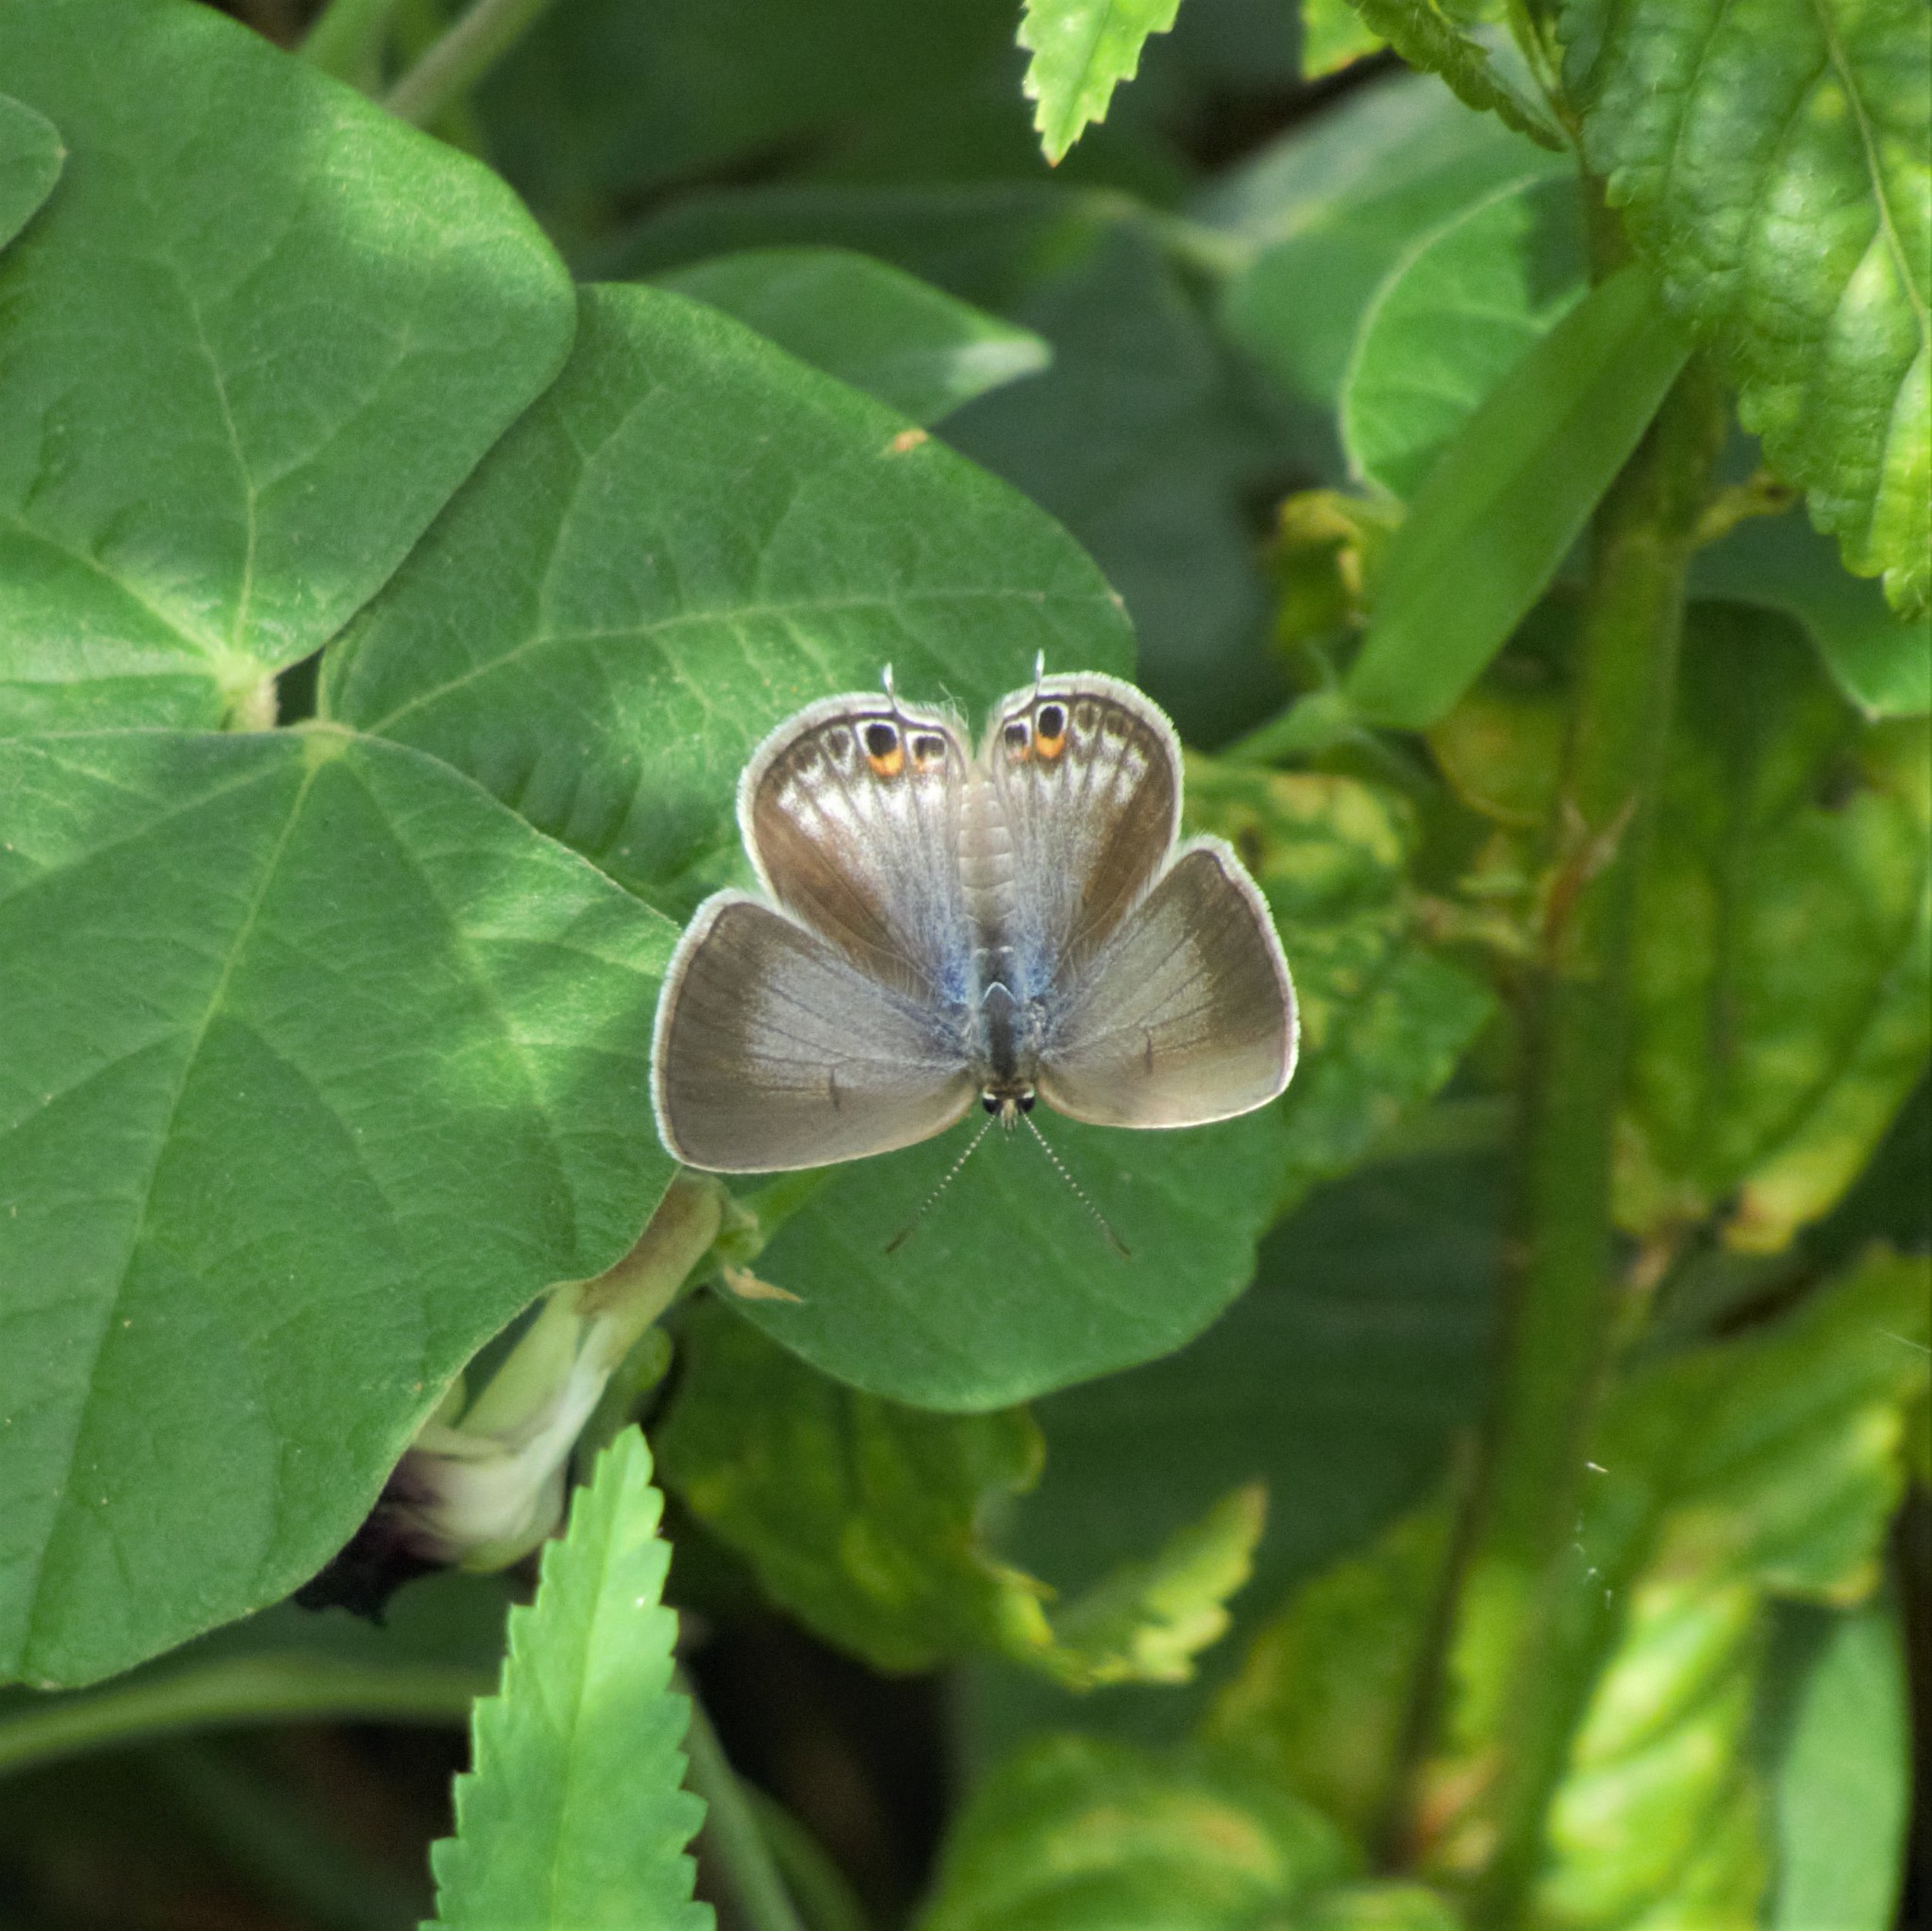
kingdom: Animalia
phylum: Arthropoda
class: Insecta
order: Lepidoptera
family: Lycaenidae
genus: Euchrysops
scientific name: Euchrysops cnejus
